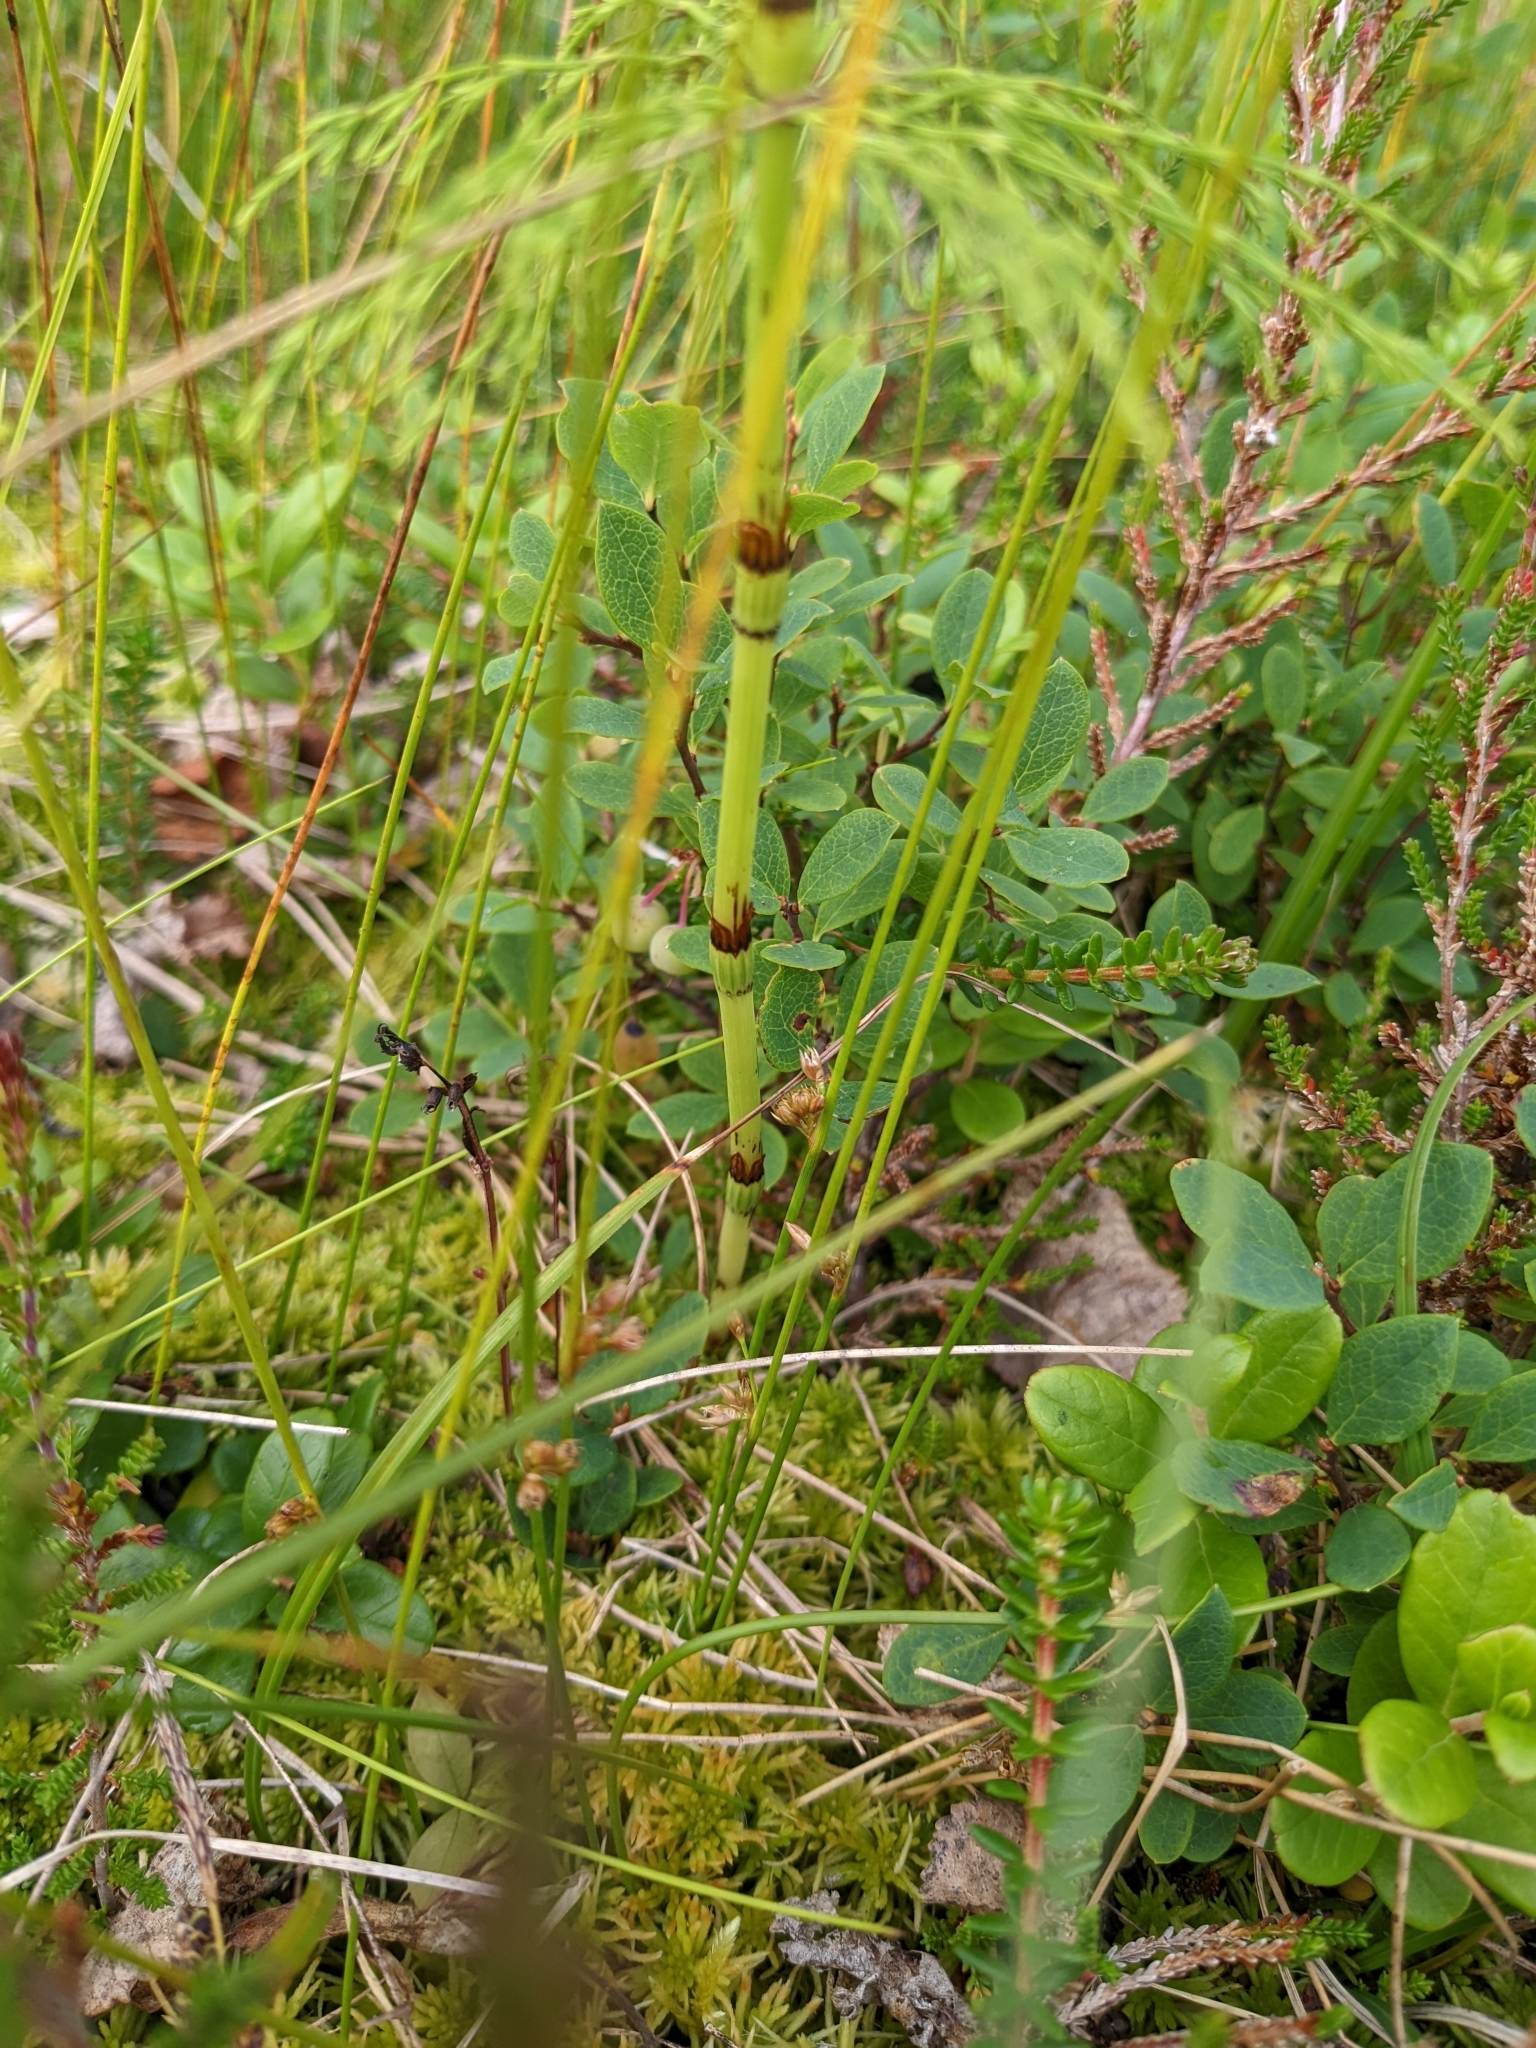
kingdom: Plantae
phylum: Tracheophyta
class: Polypodiopsida
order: Equisetales
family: Equisetaceae
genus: Equisetum
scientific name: Equisetum sylvaticum
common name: Wood horsetail
